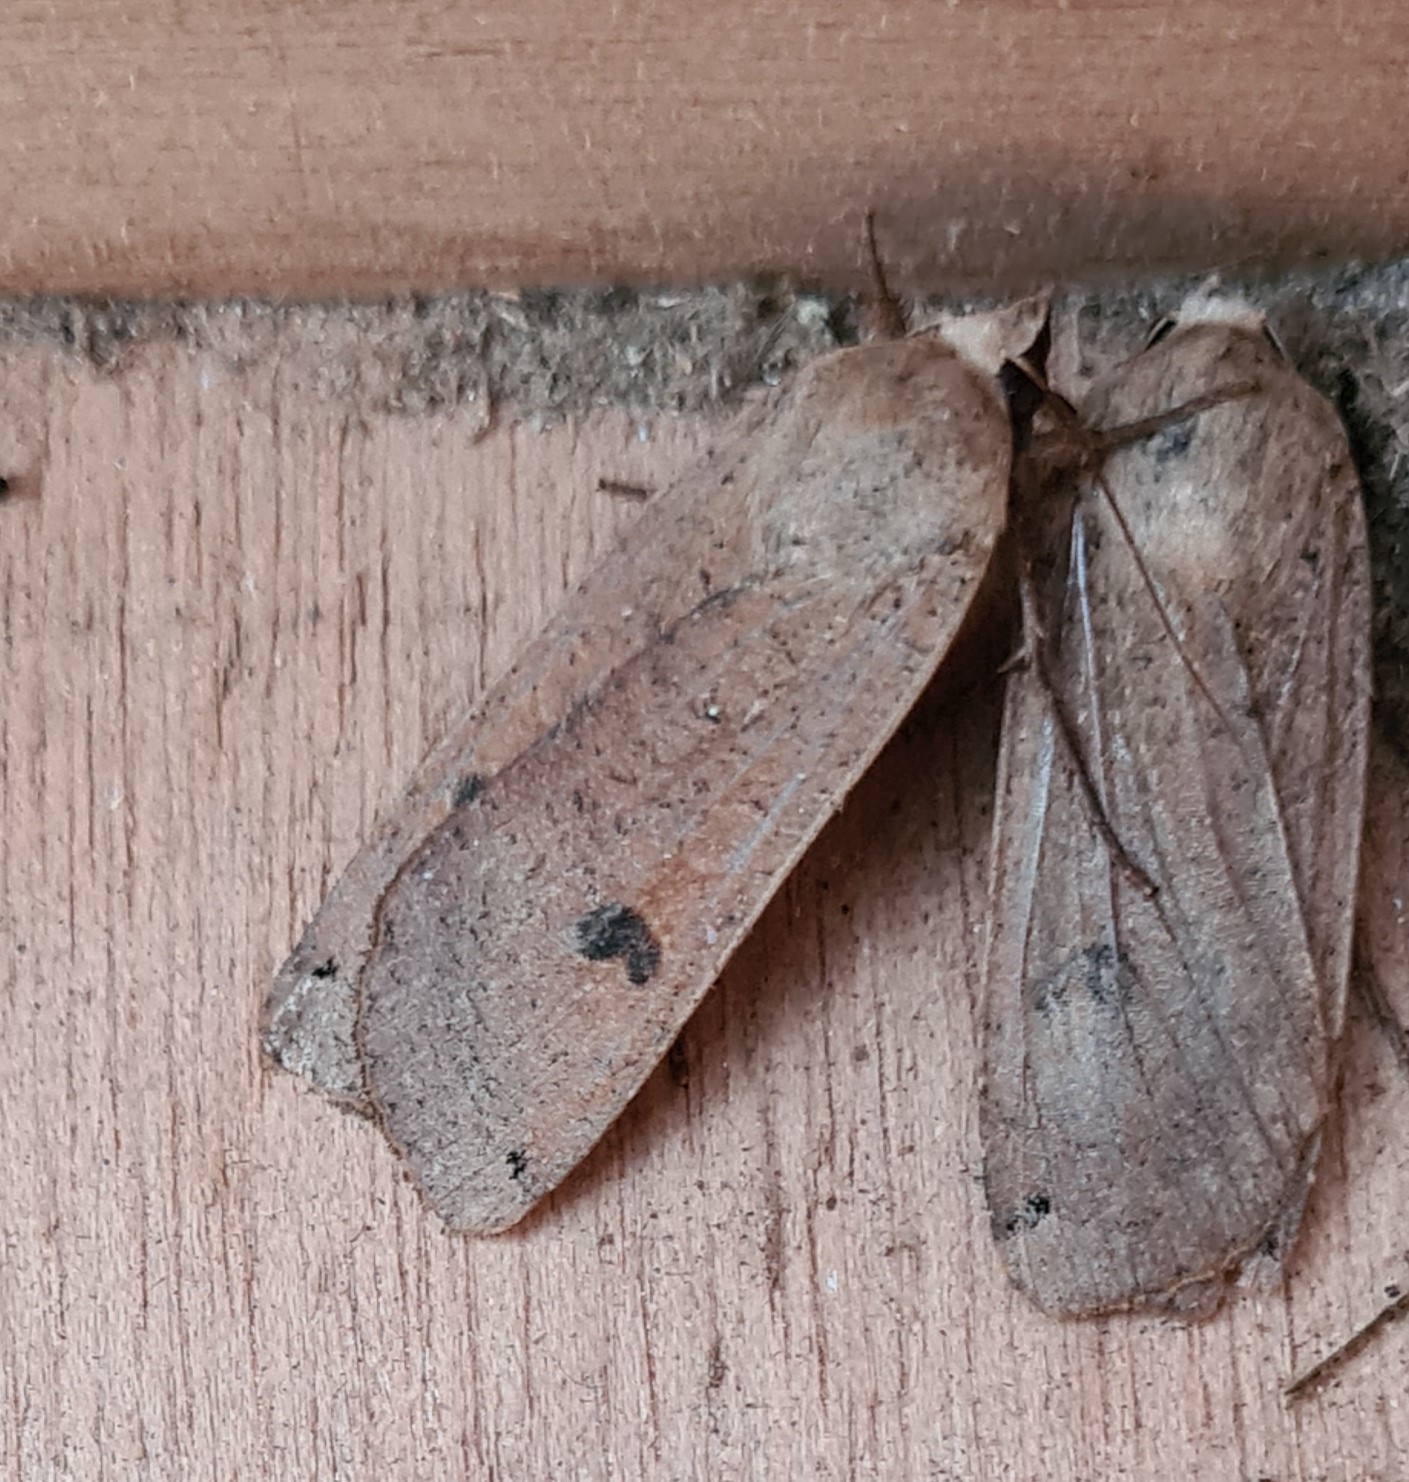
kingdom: Animalia
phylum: Arthropoda
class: Insecta
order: Lepidoptera
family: Noctuidae
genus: Noctua
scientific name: Noctua pronuba
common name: Large yellow underwing
